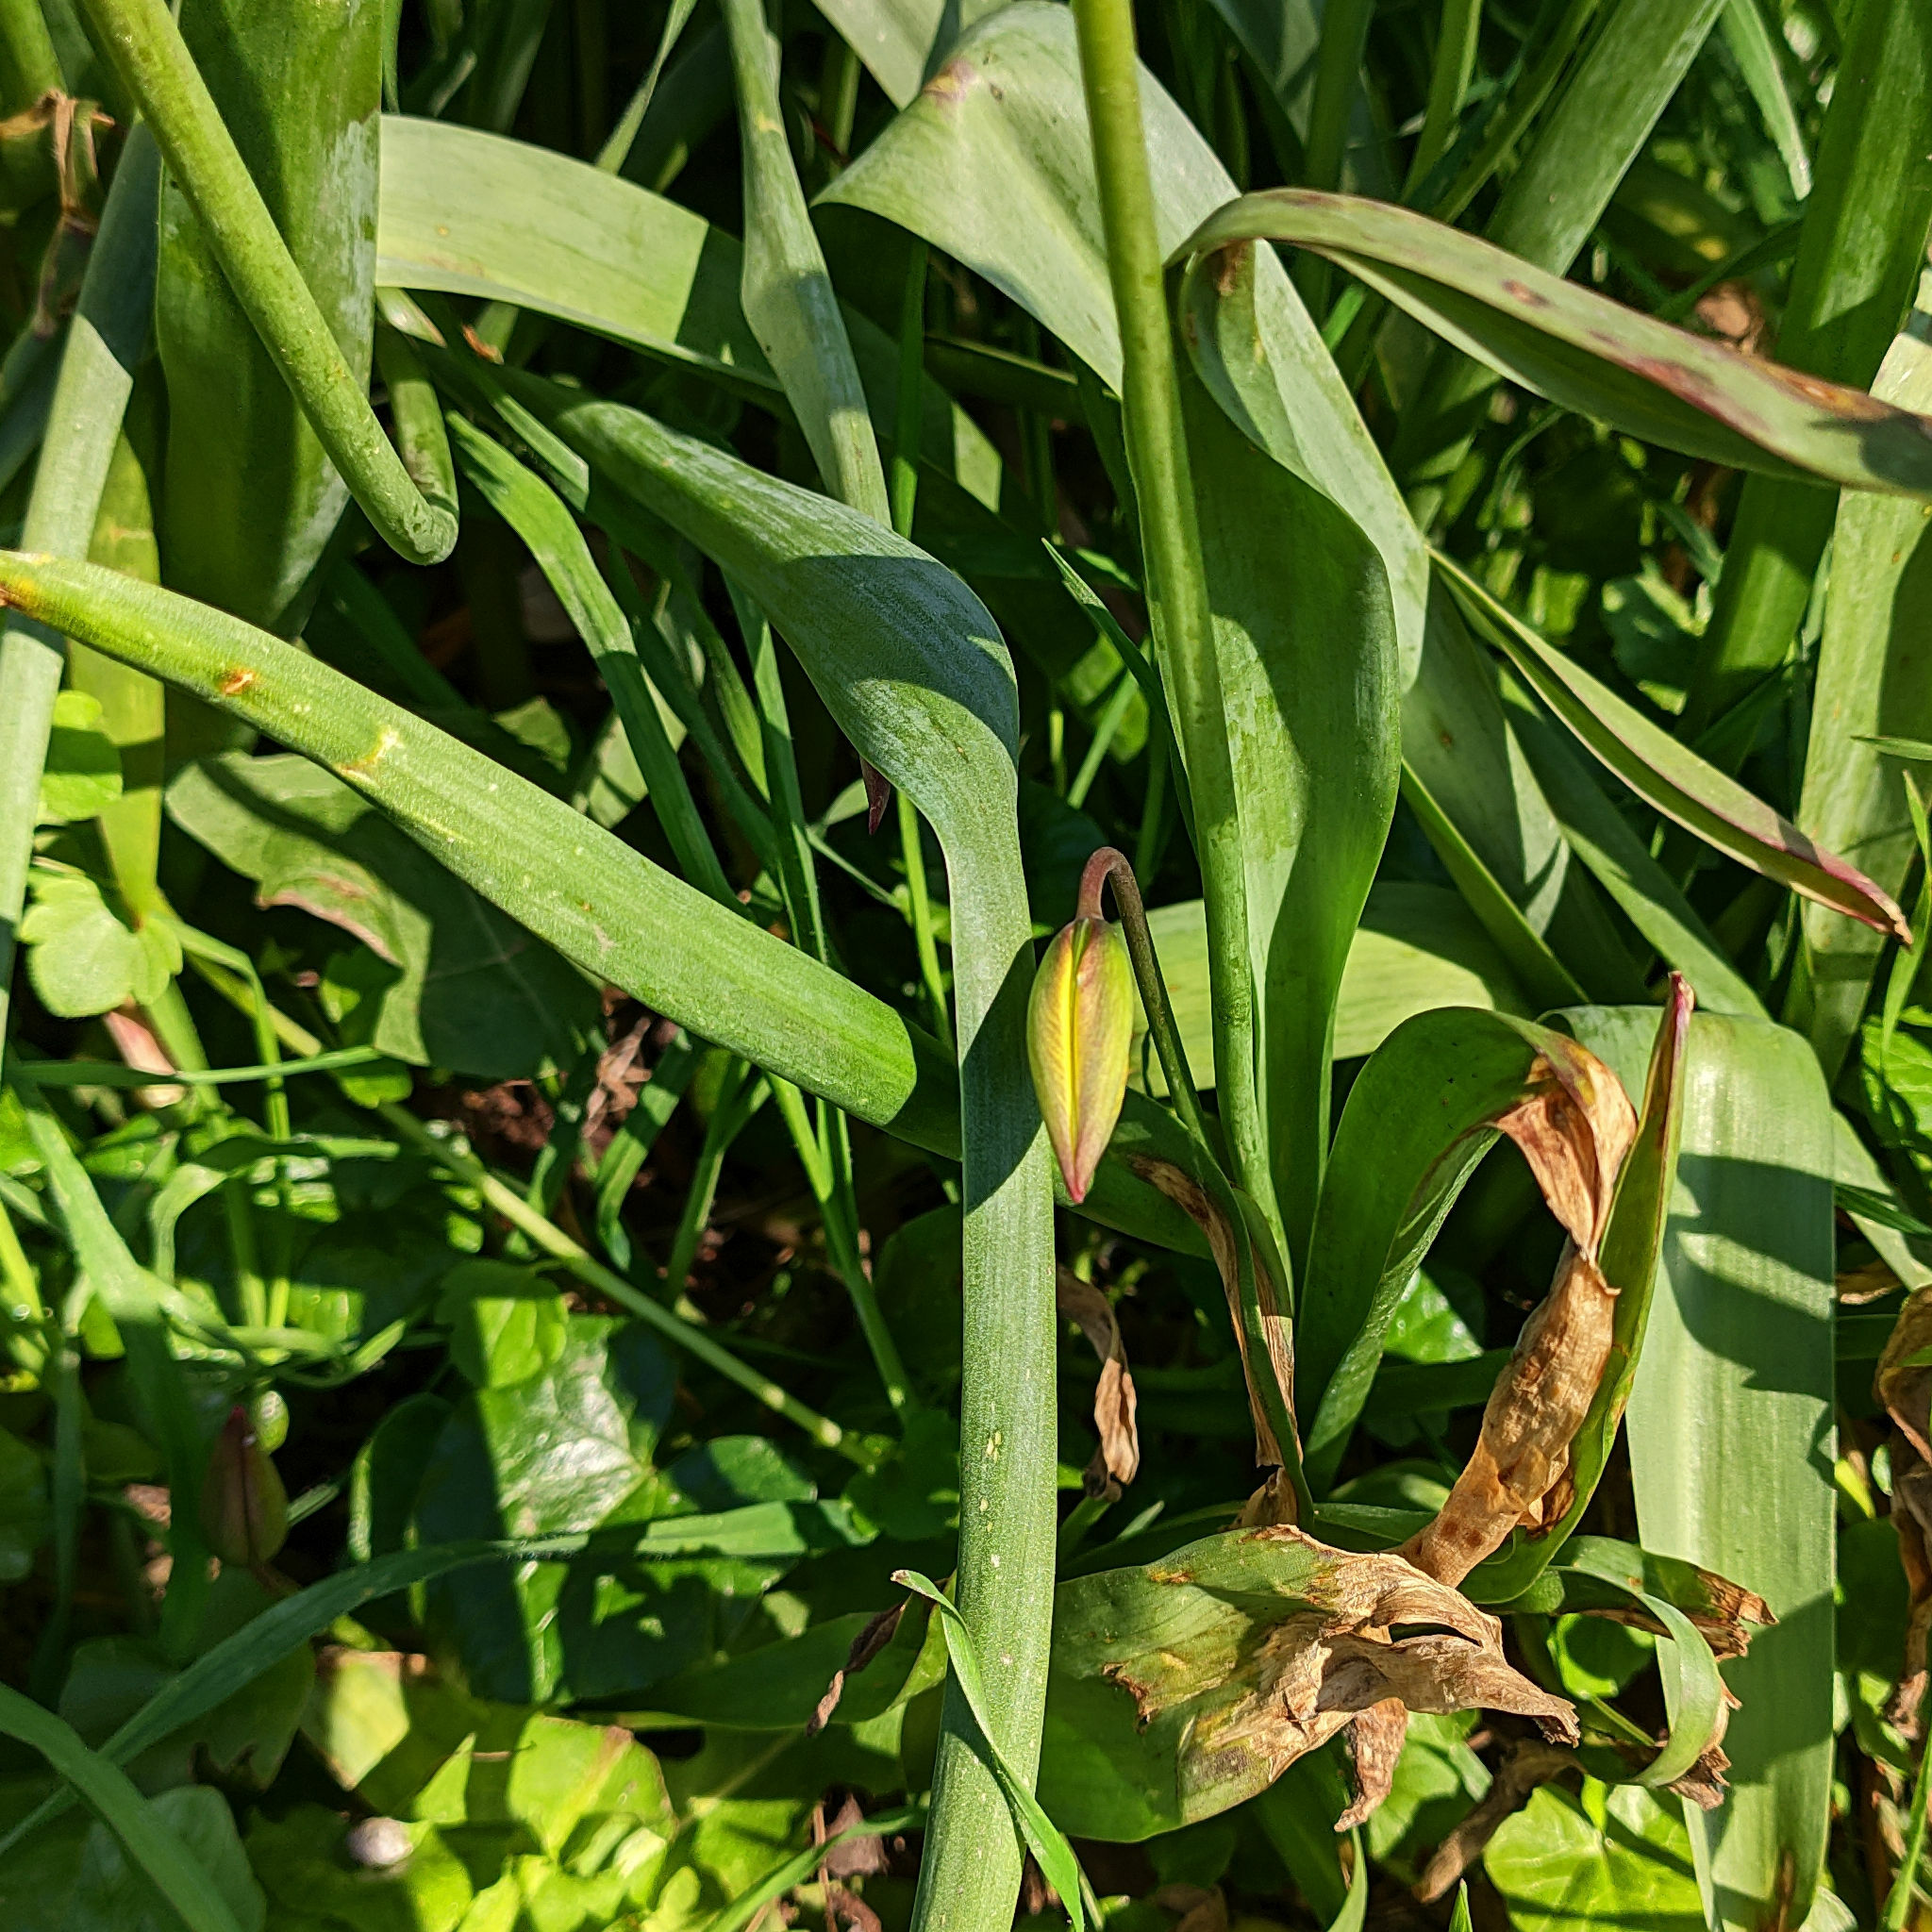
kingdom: Plantae
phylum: Tracheophyta
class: Liliopsida
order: Liliales
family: Liliaceae
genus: Tulipa
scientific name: Tulipa sylvestris
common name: Wild tulip
